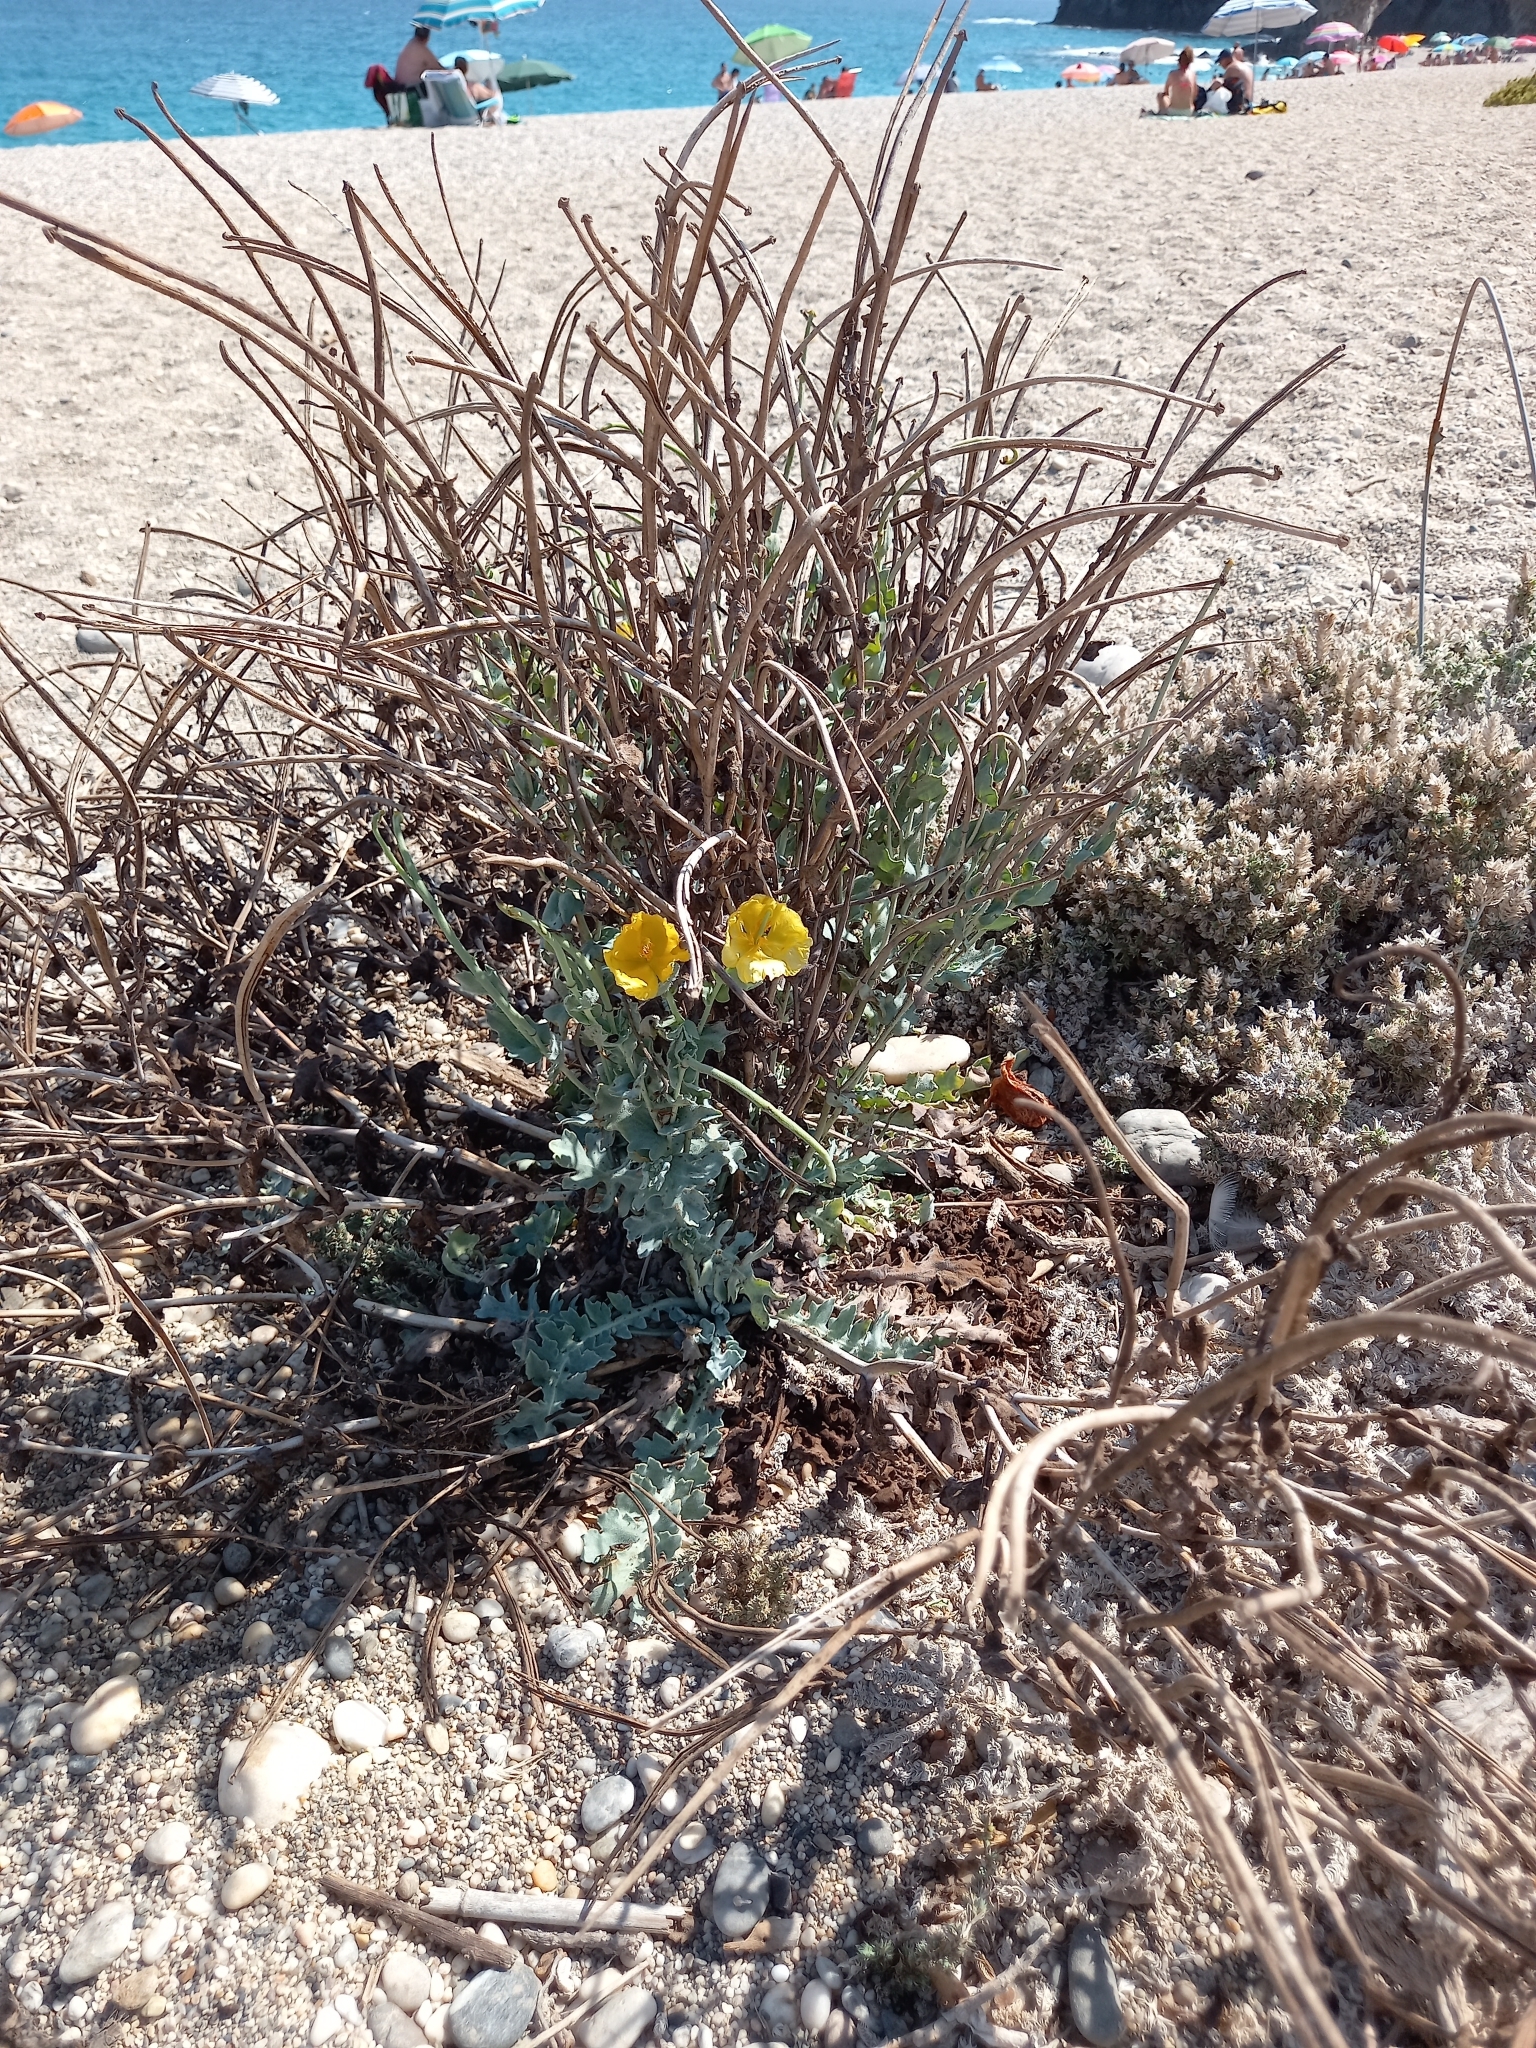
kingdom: Plantae
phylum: Tracheophyta
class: Magnoliopsida
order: Ranunculales
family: Papaveraceae
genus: Glaucium
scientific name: Glaucium flavum
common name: Yellow horned-poppy
